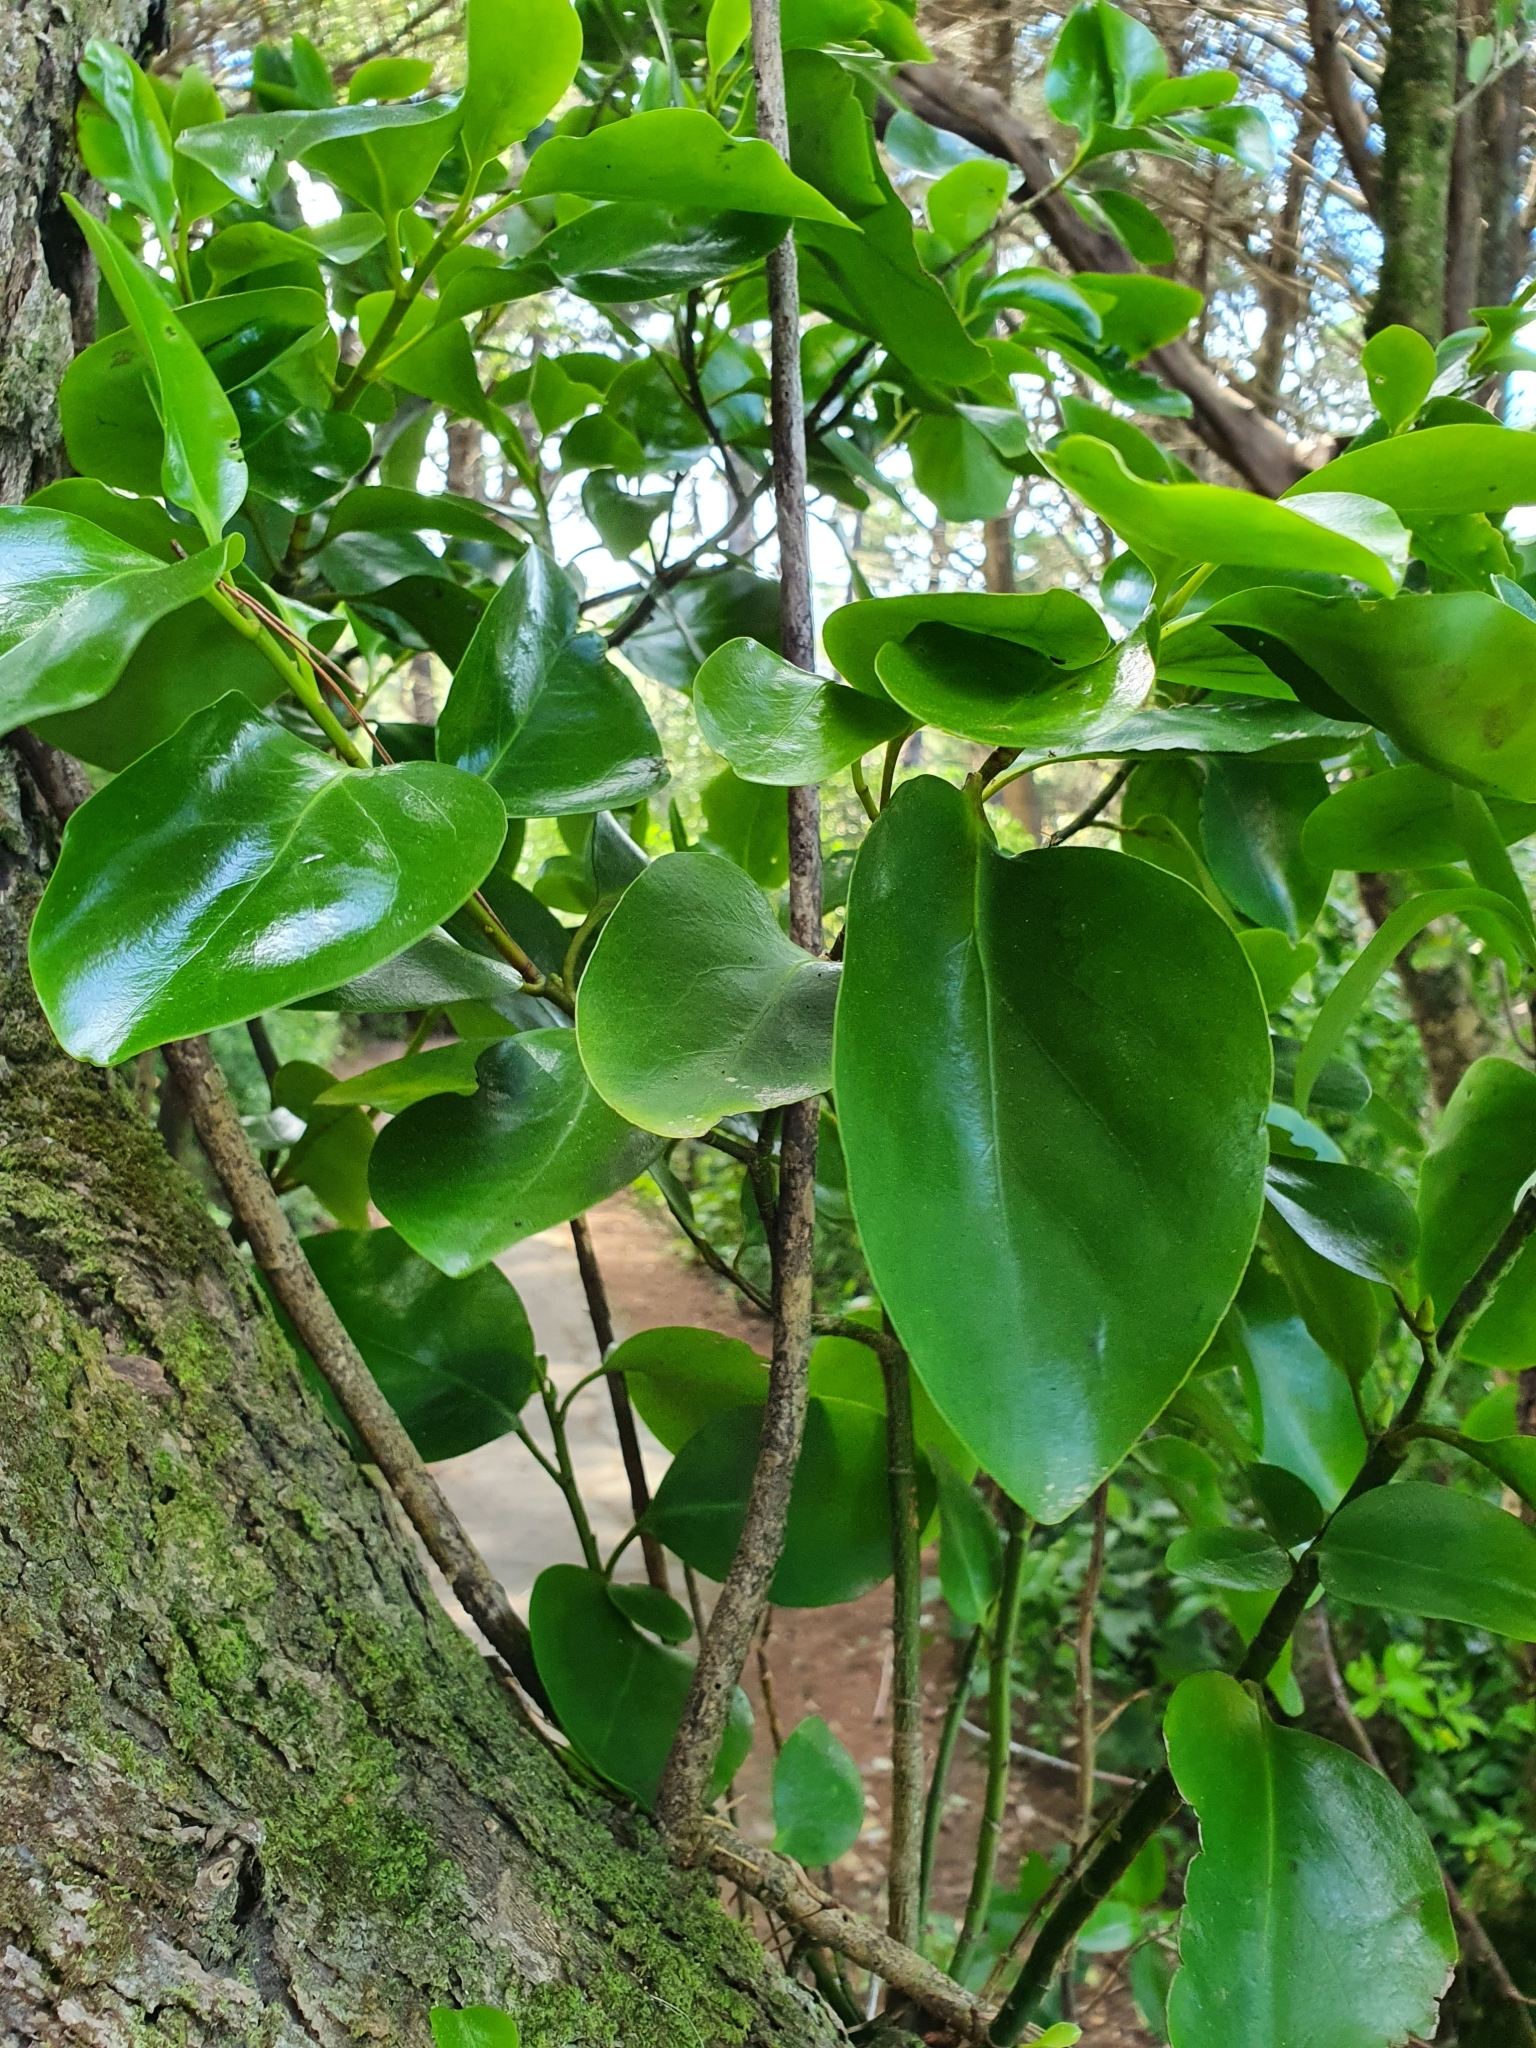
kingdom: Plantae
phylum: Tracheophyta
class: Magnoliopsida
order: Apiales
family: Griseliniaceae
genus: Griselinia
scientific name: Griselinia littoralis
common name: New zealand broadleaf
